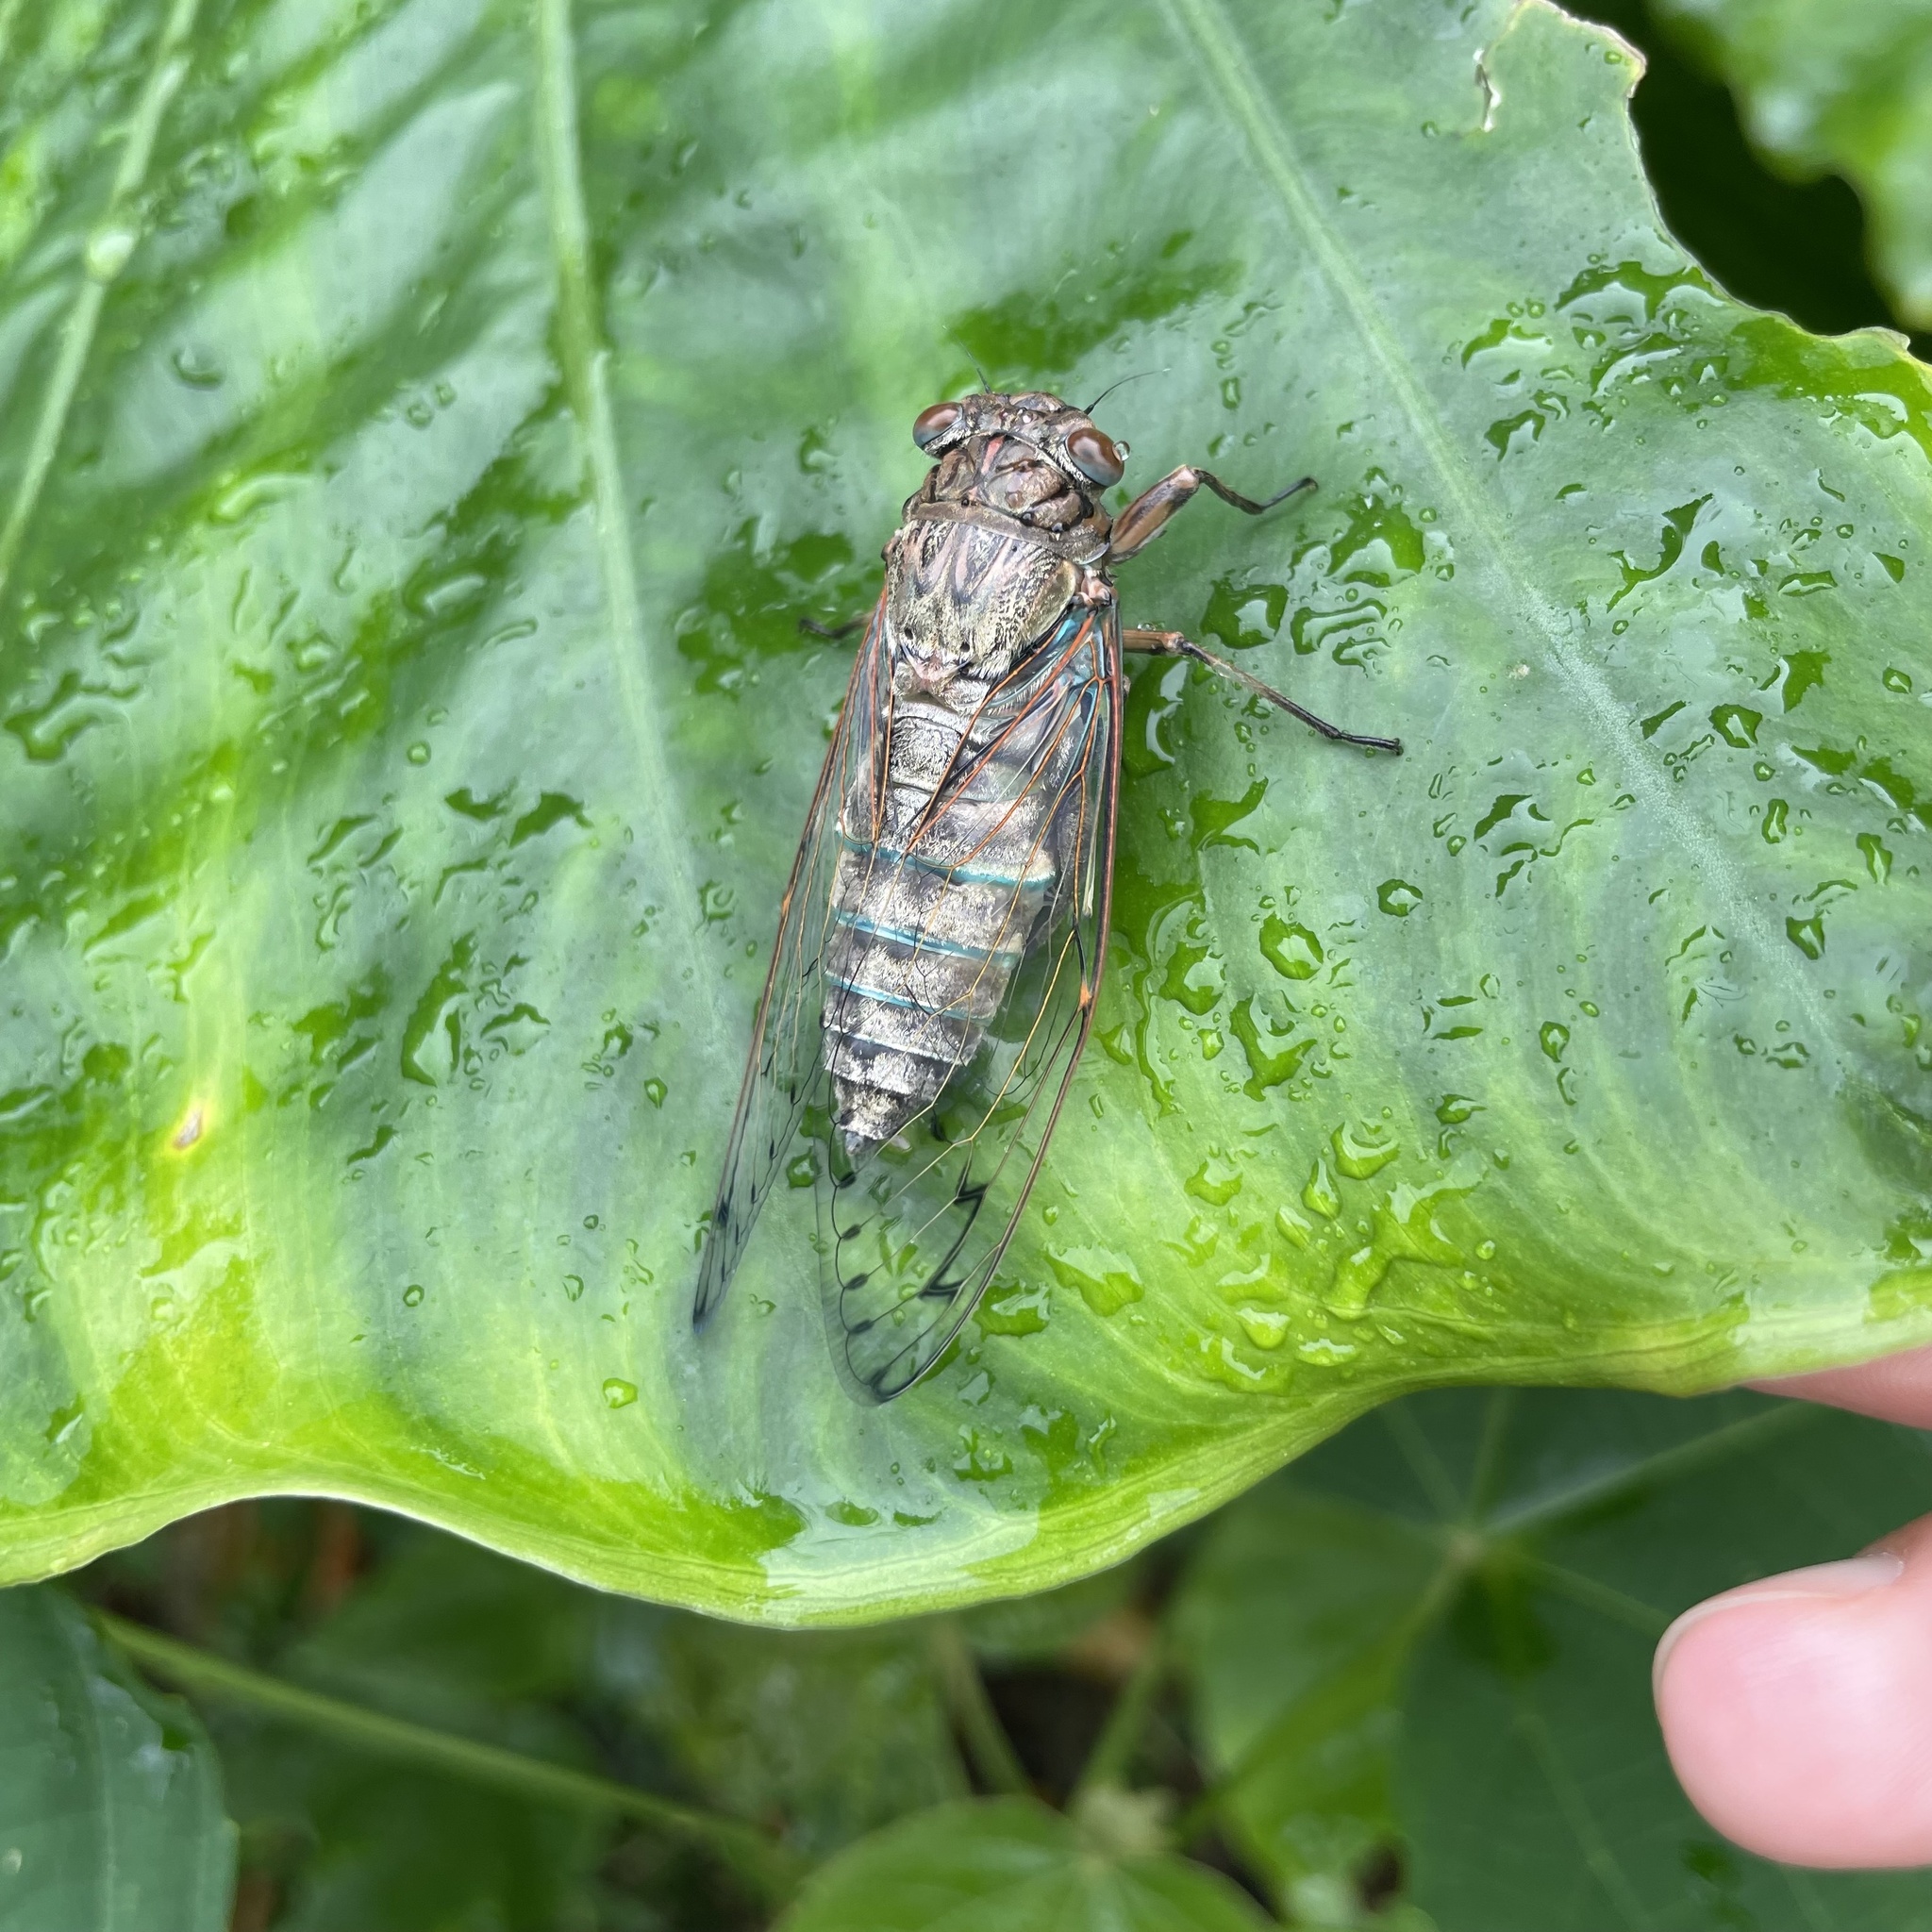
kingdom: Animalia
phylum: Arthropoda
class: Insecta
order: Hemiptera
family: Cicadidae
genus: Meimuna
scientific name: Meimuna oshimensis
